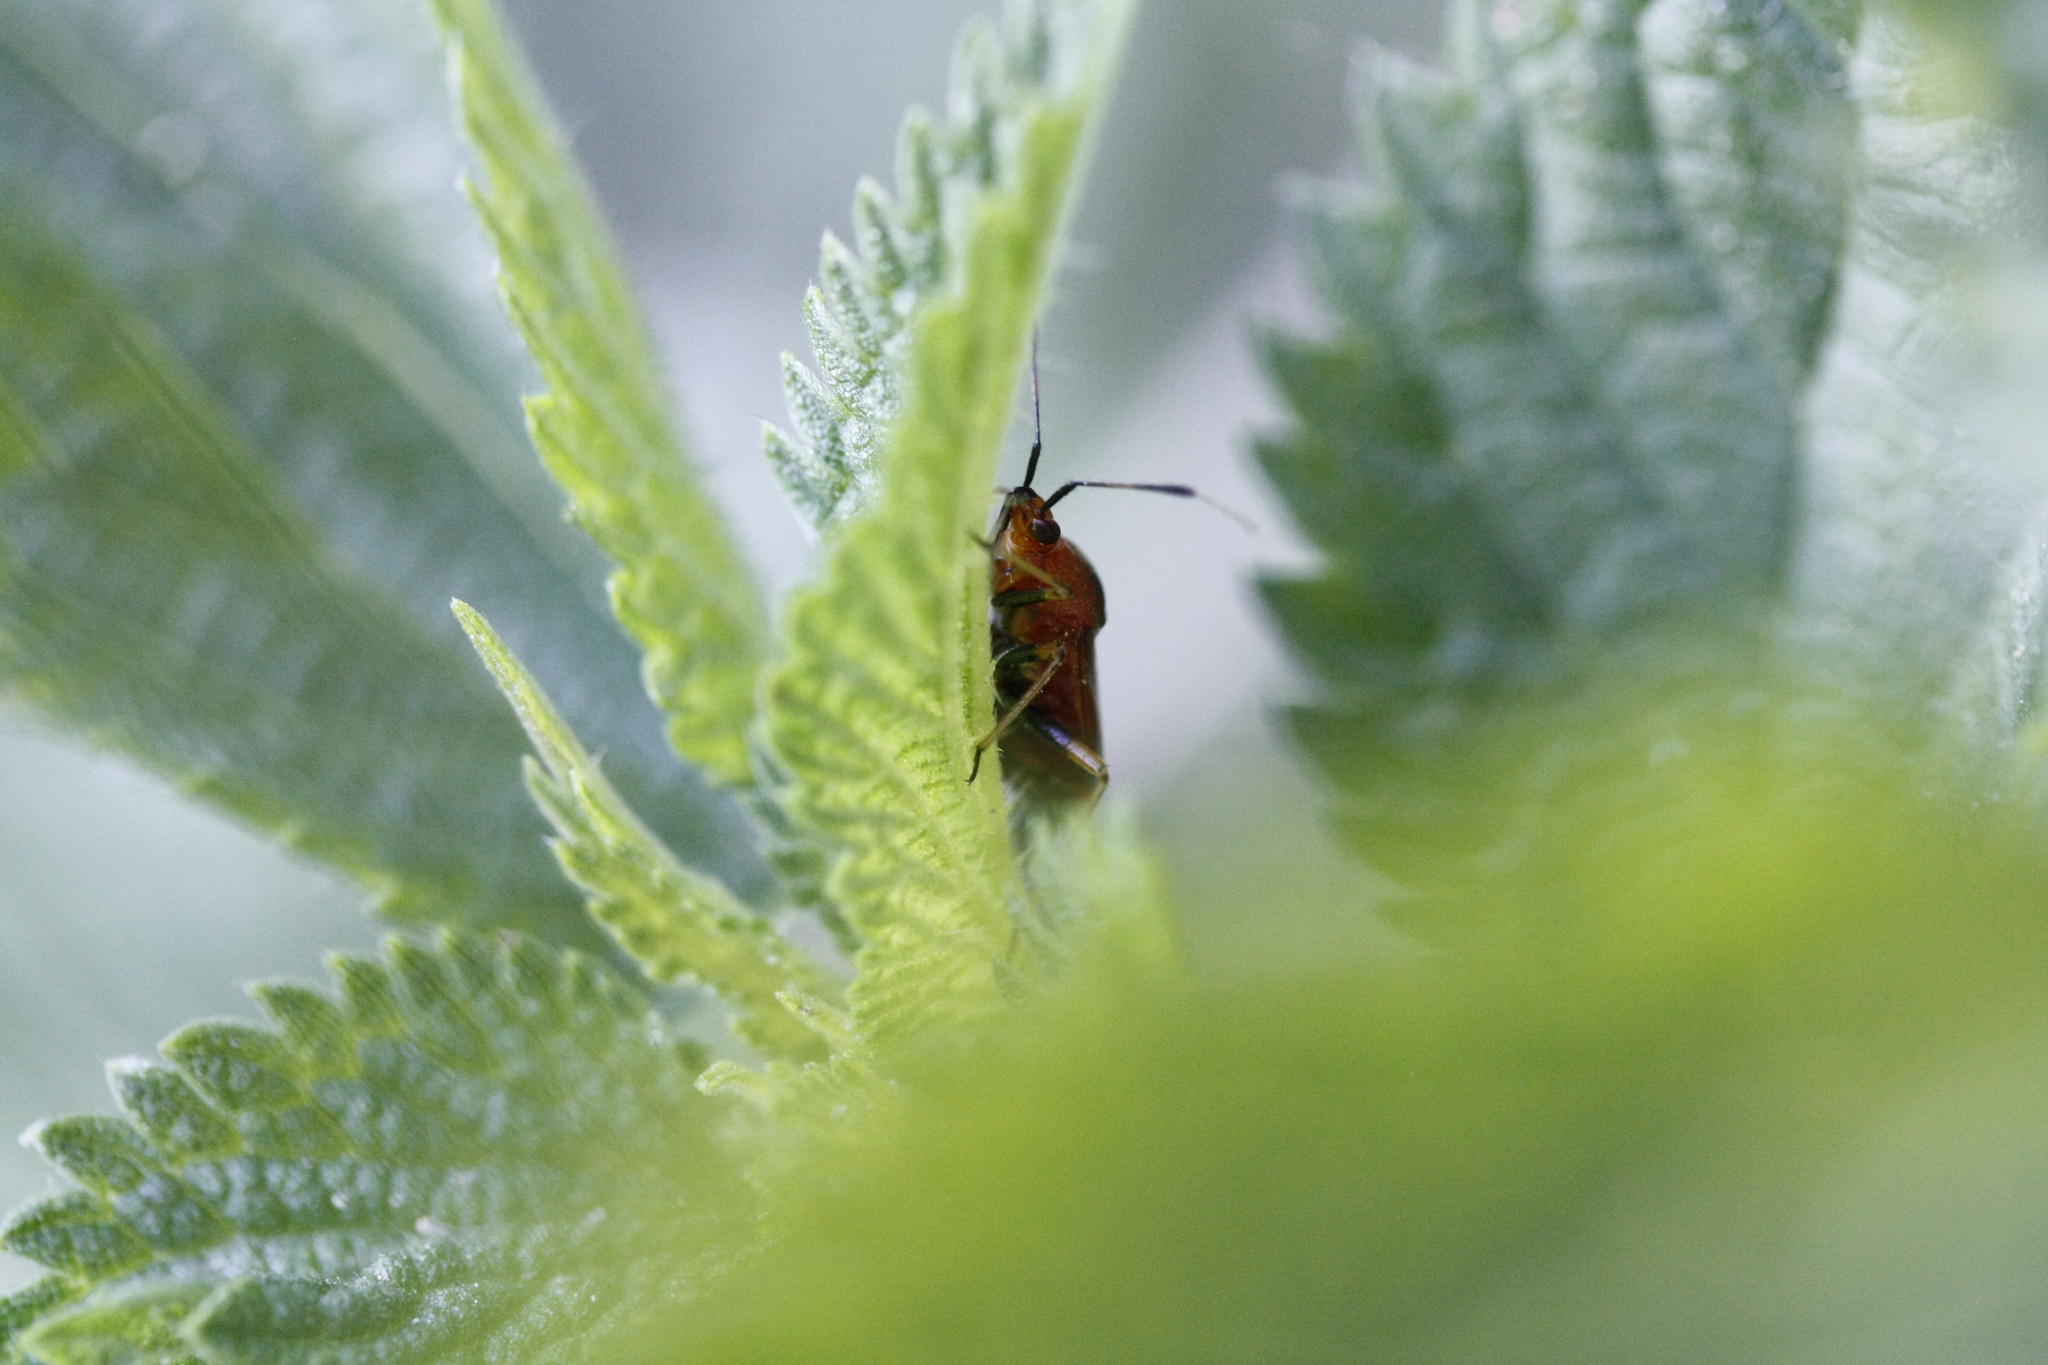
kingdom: Animalia
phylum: Arthropoda
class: Insecta
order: Hemiptera
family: Miridae
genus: Deraeocoris
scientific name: Deraeocoris ruber
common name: Plant bug
